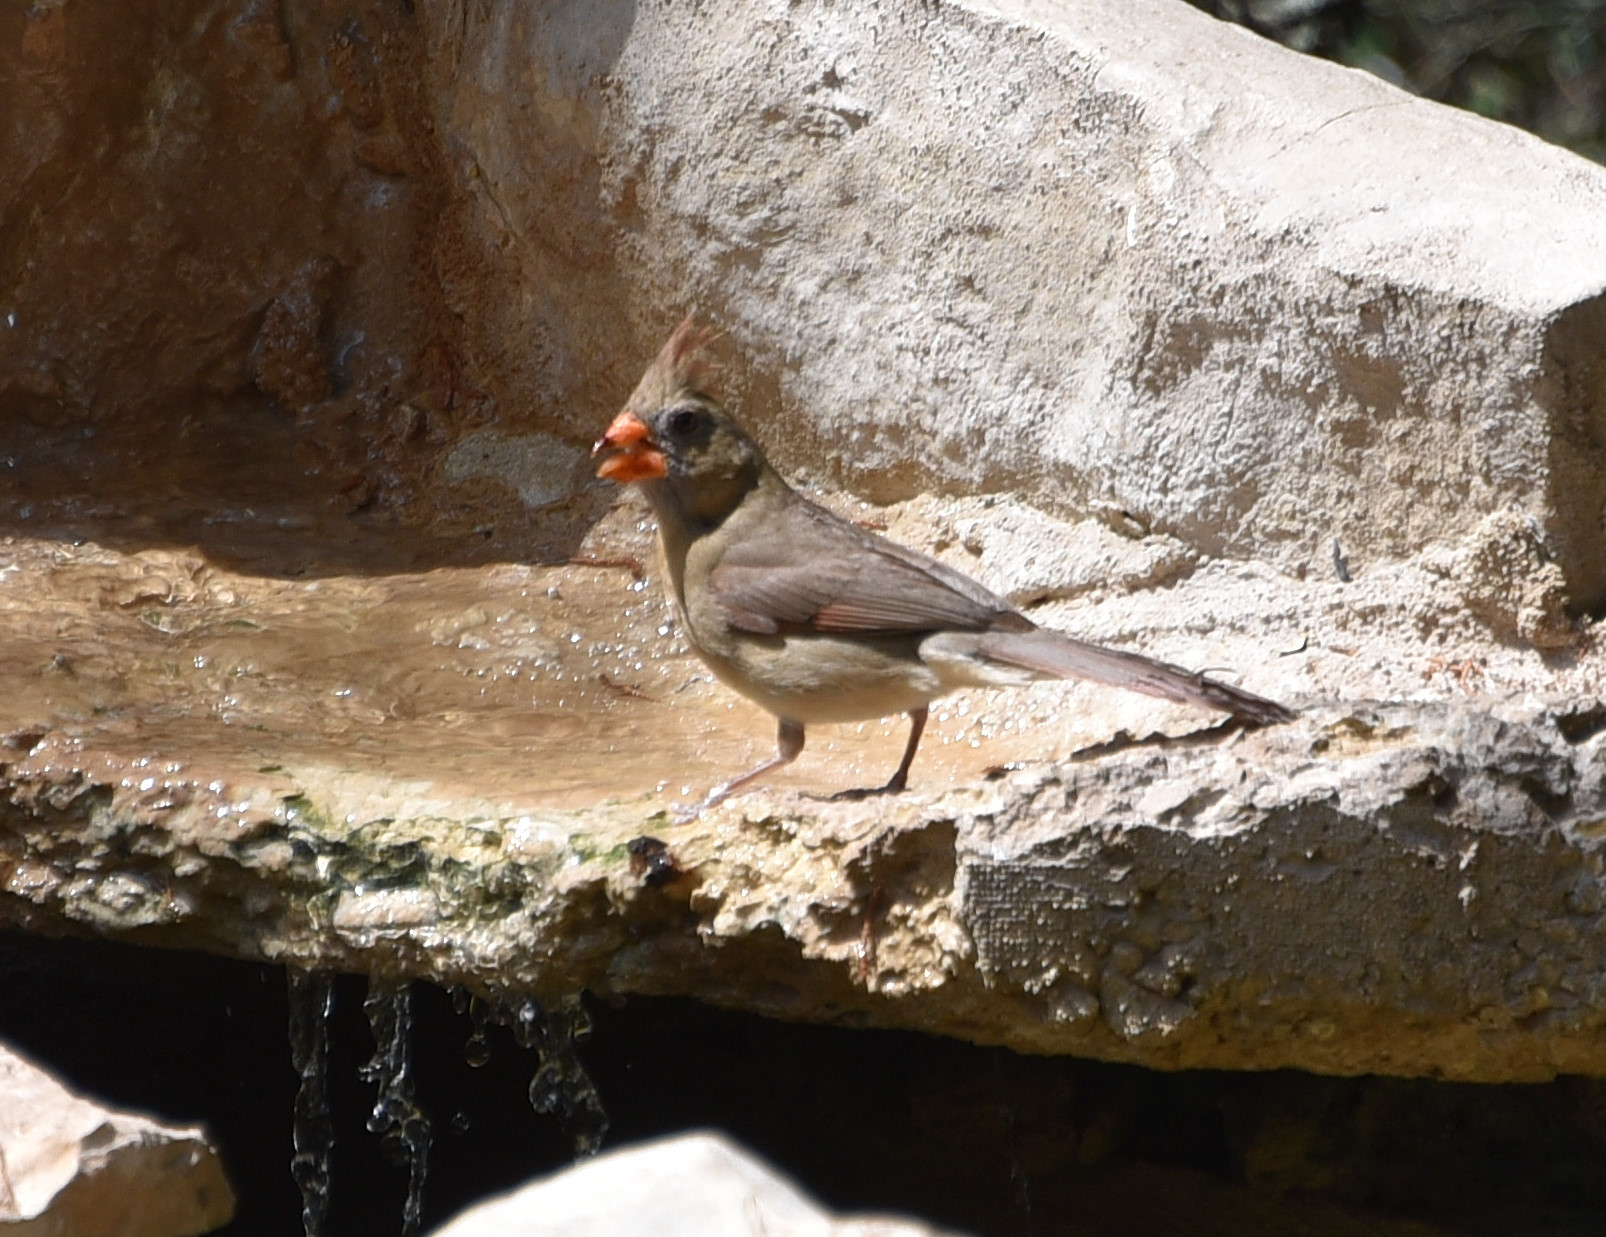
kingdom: Animalia
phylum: Chordata
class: Aves
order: Passeriformes
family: Cardinalidae
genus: Cardinalis
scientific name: Cardinalis cardinalis
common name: Northern cardinal
